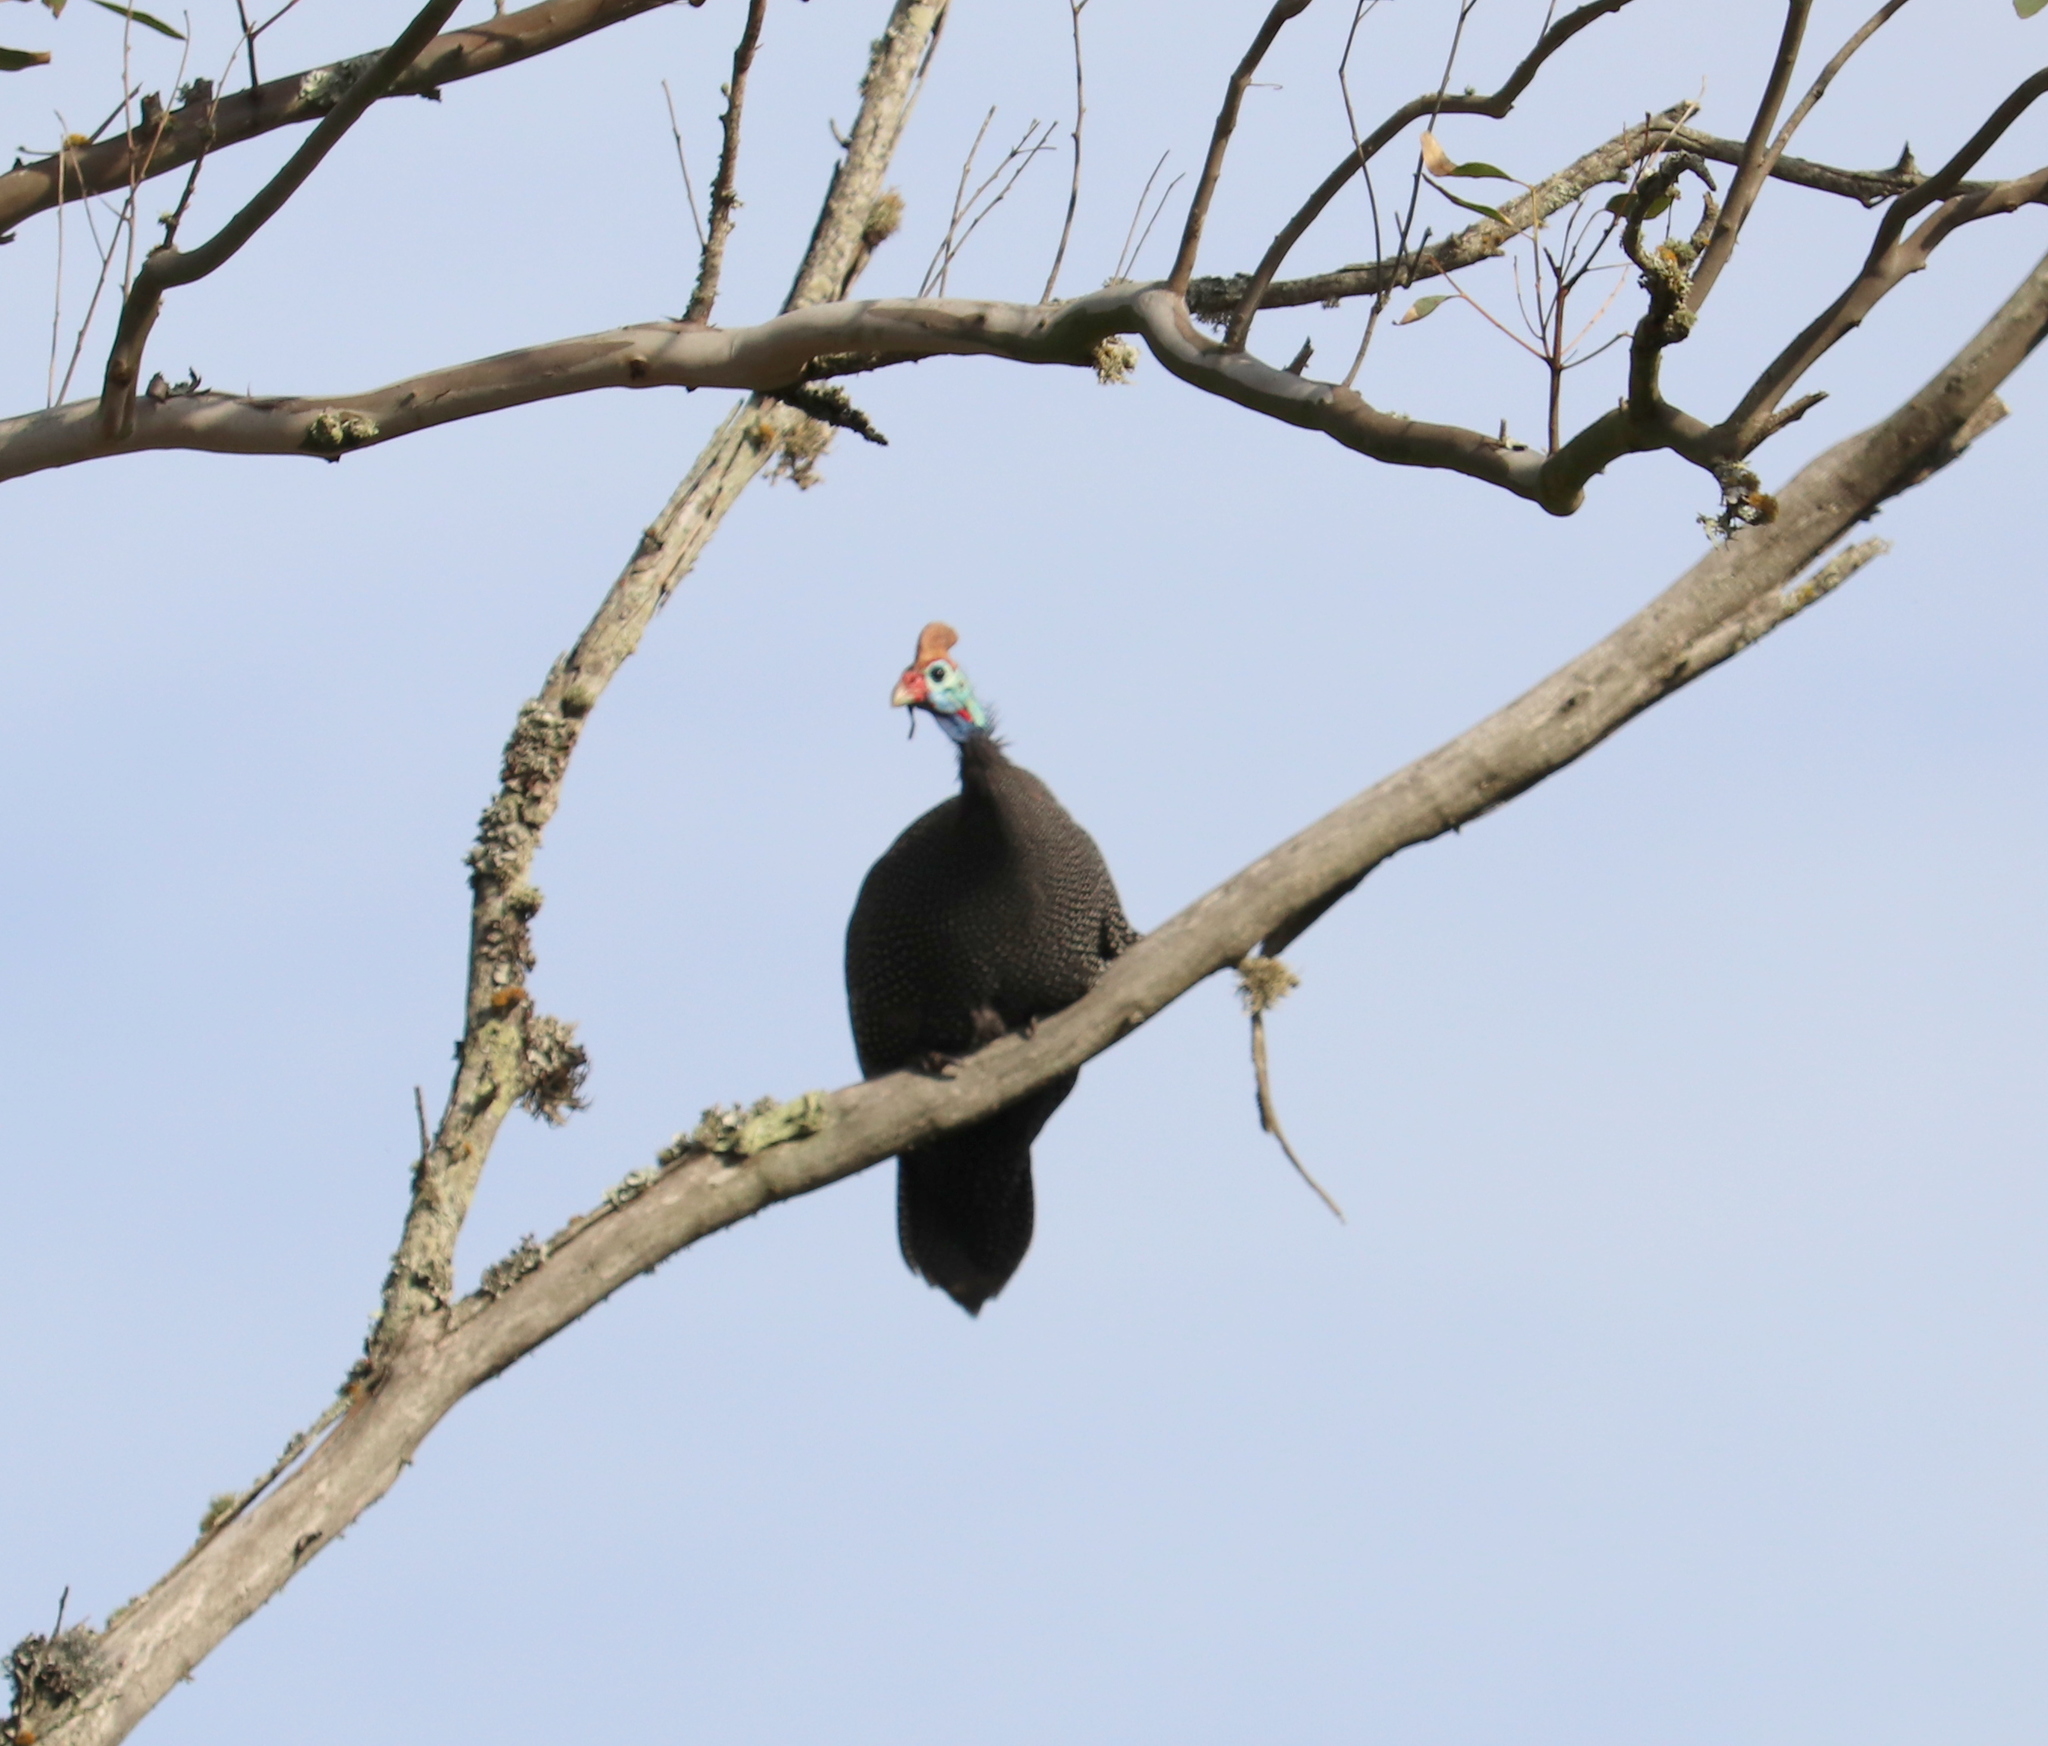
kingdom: Animalia
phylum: Chordata
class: Aves
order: Galliformes
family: Numididae
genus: Numida
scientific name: Numida meleagris
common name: Helmeted guineafowl
